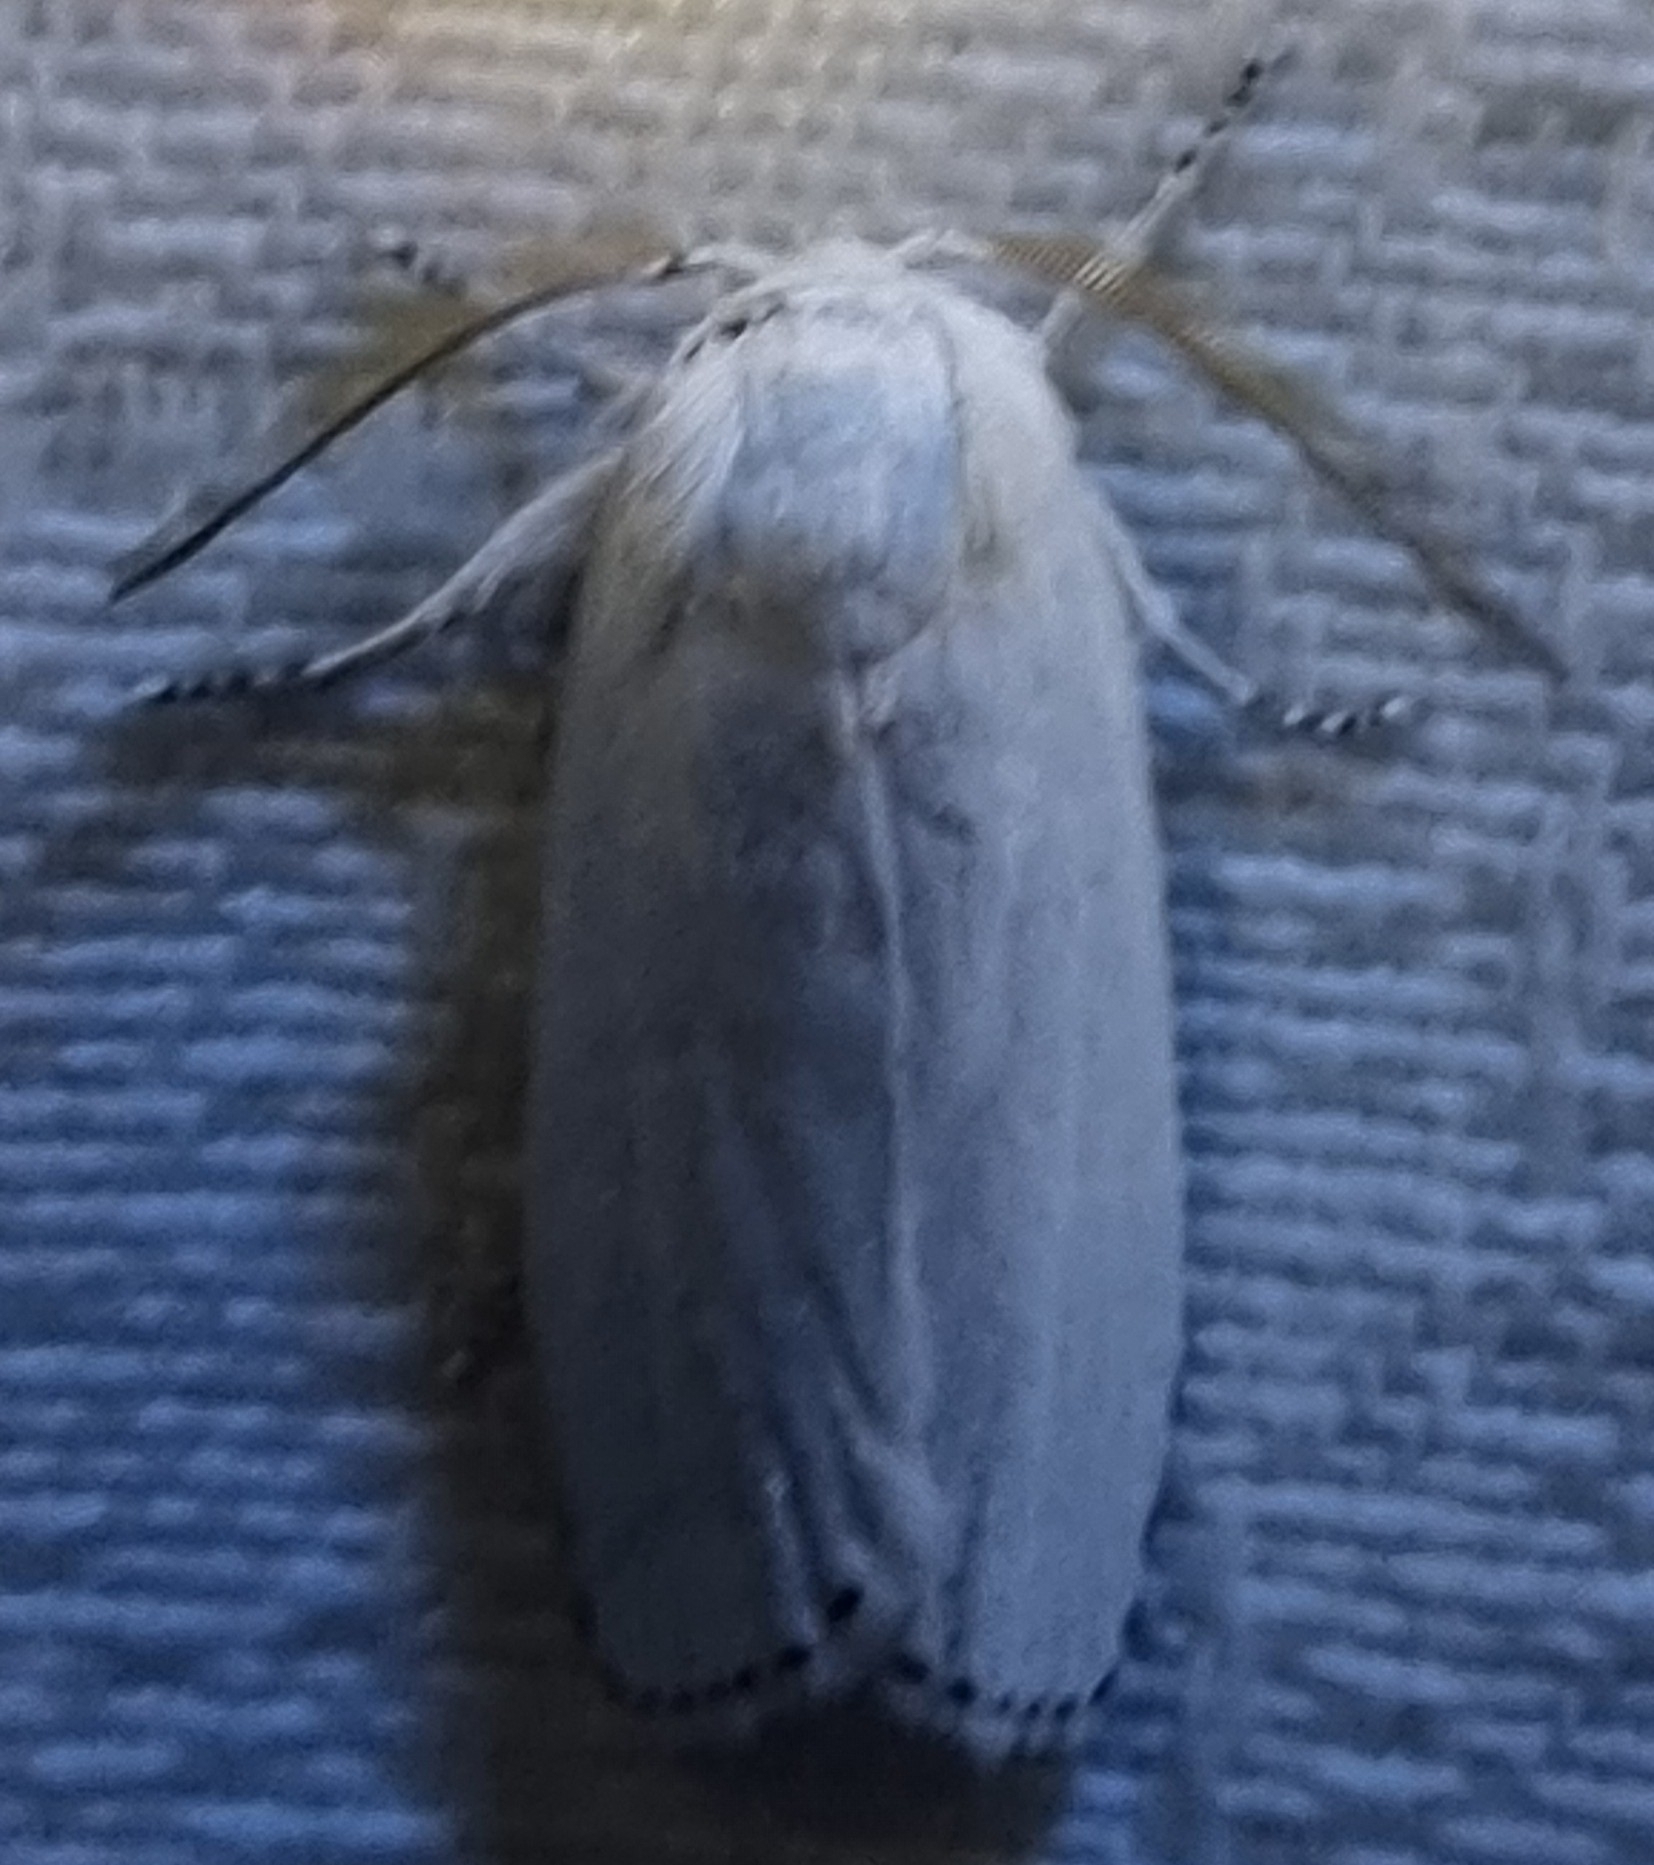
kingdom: Animalia
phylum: Arthropoda
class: Insecta
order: Lepidoptera
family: Xyloryctidae
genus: Cryptophasa
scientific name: Cryptophasa epadelpha
